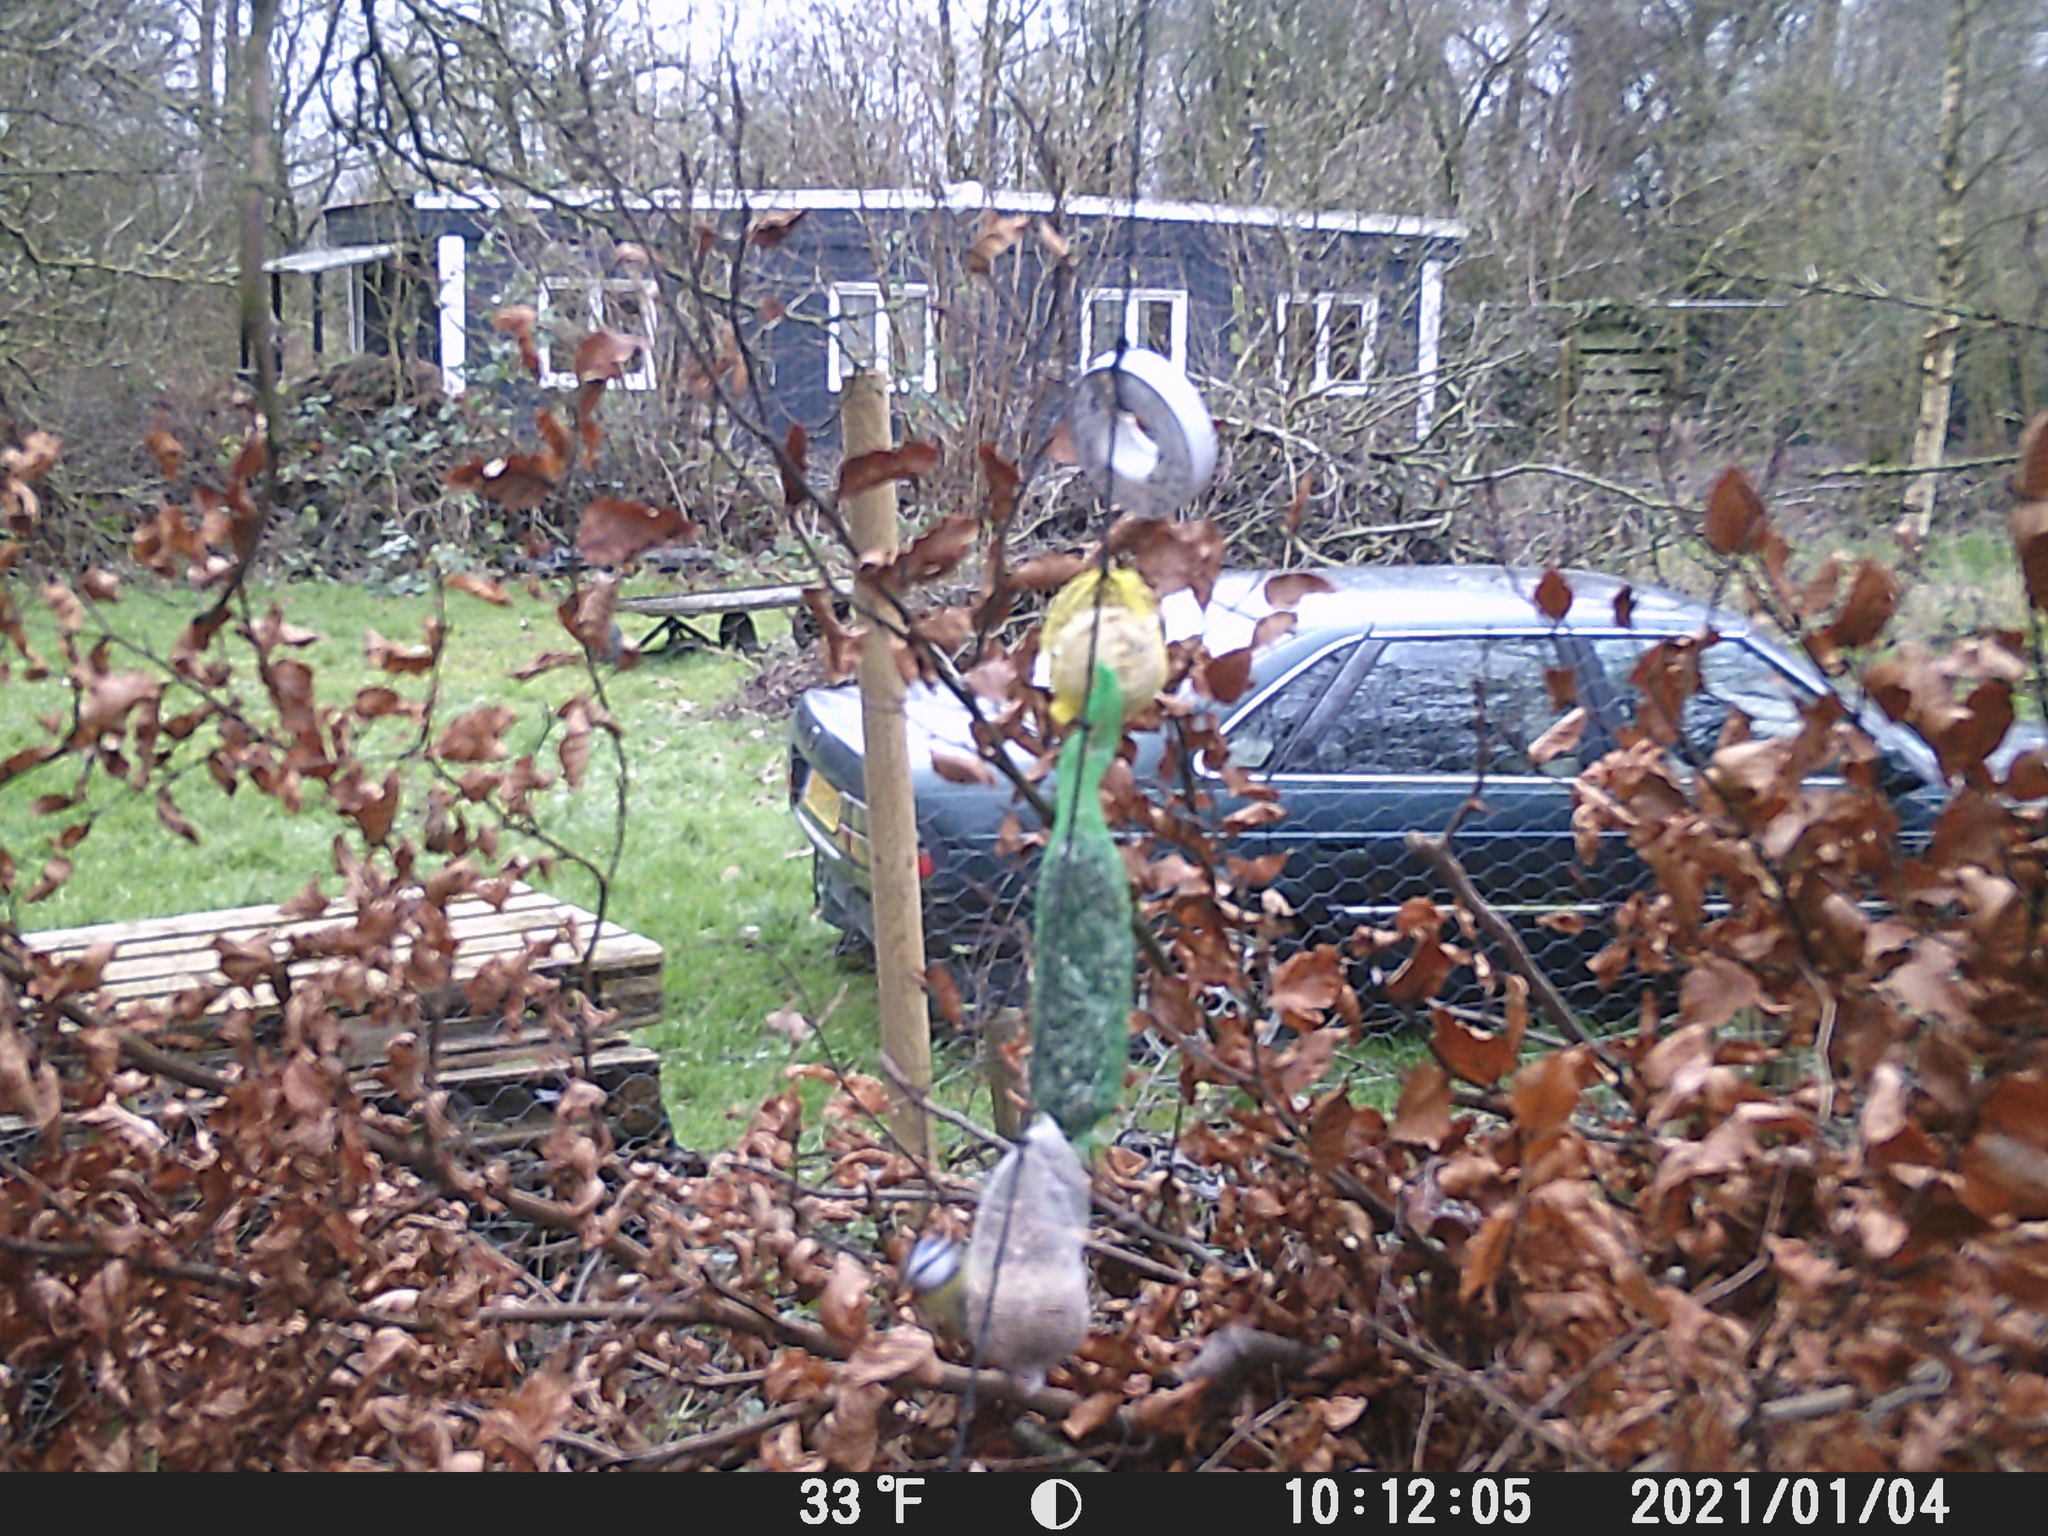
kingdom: Animalia
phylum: Chordata
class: Aves
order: Passeriformes
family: Paridae
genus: Cyanistes
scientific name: Cyanistes caeruleus
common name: Eurasian blue tit
